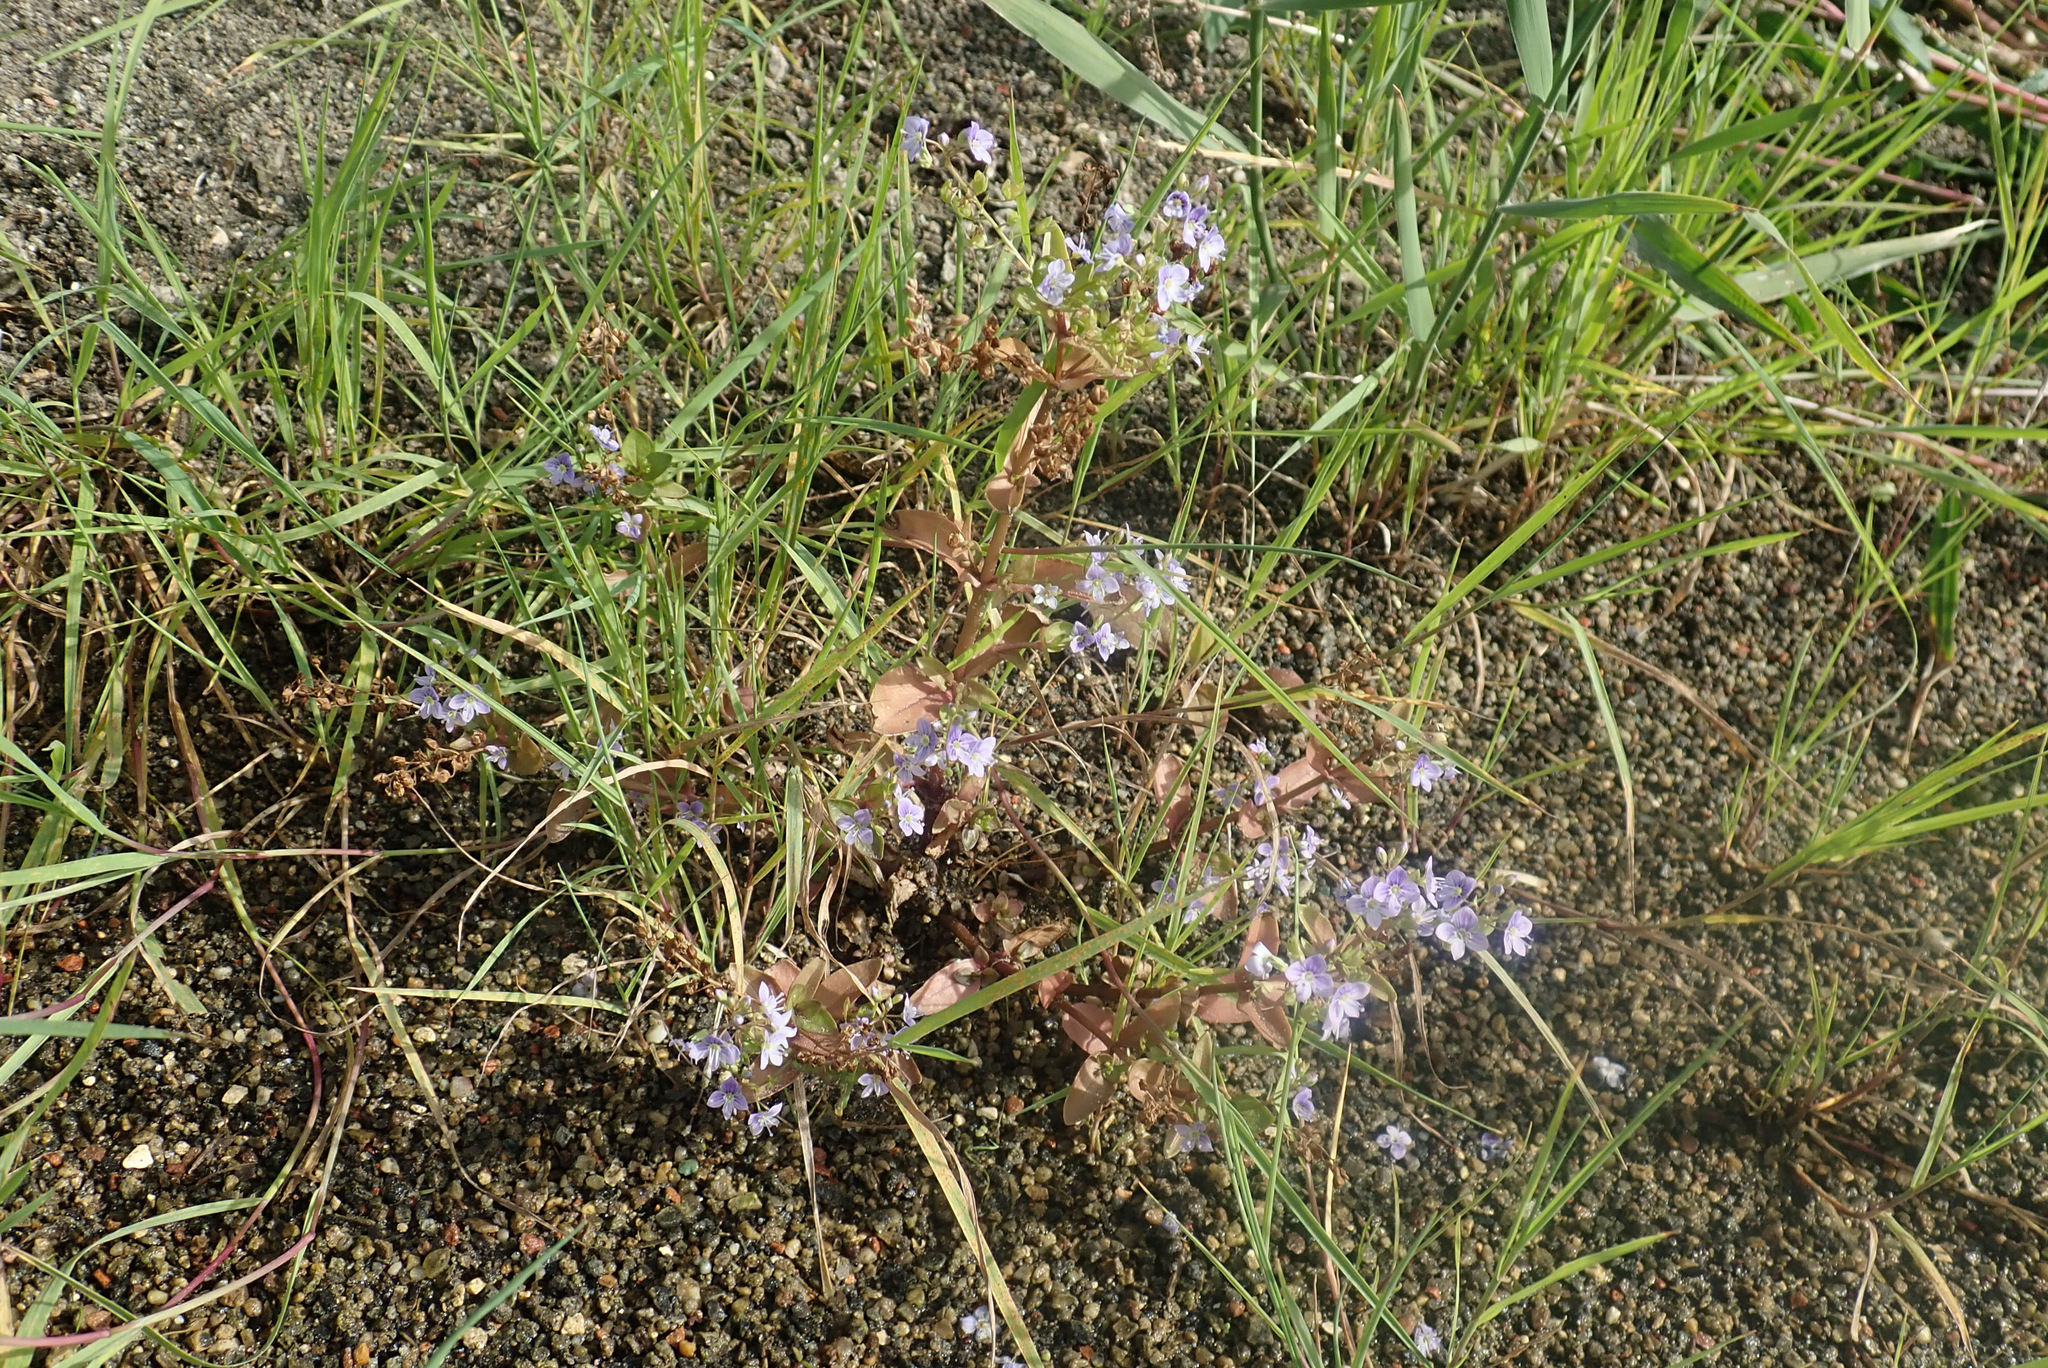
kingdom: Plantae
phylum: Tracheophyta
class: Magnoliopsida
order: Lamiales
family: Plantaginaceae
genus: Veronica
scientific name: Veronica anagallis-aquatica
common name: Water speedwell
